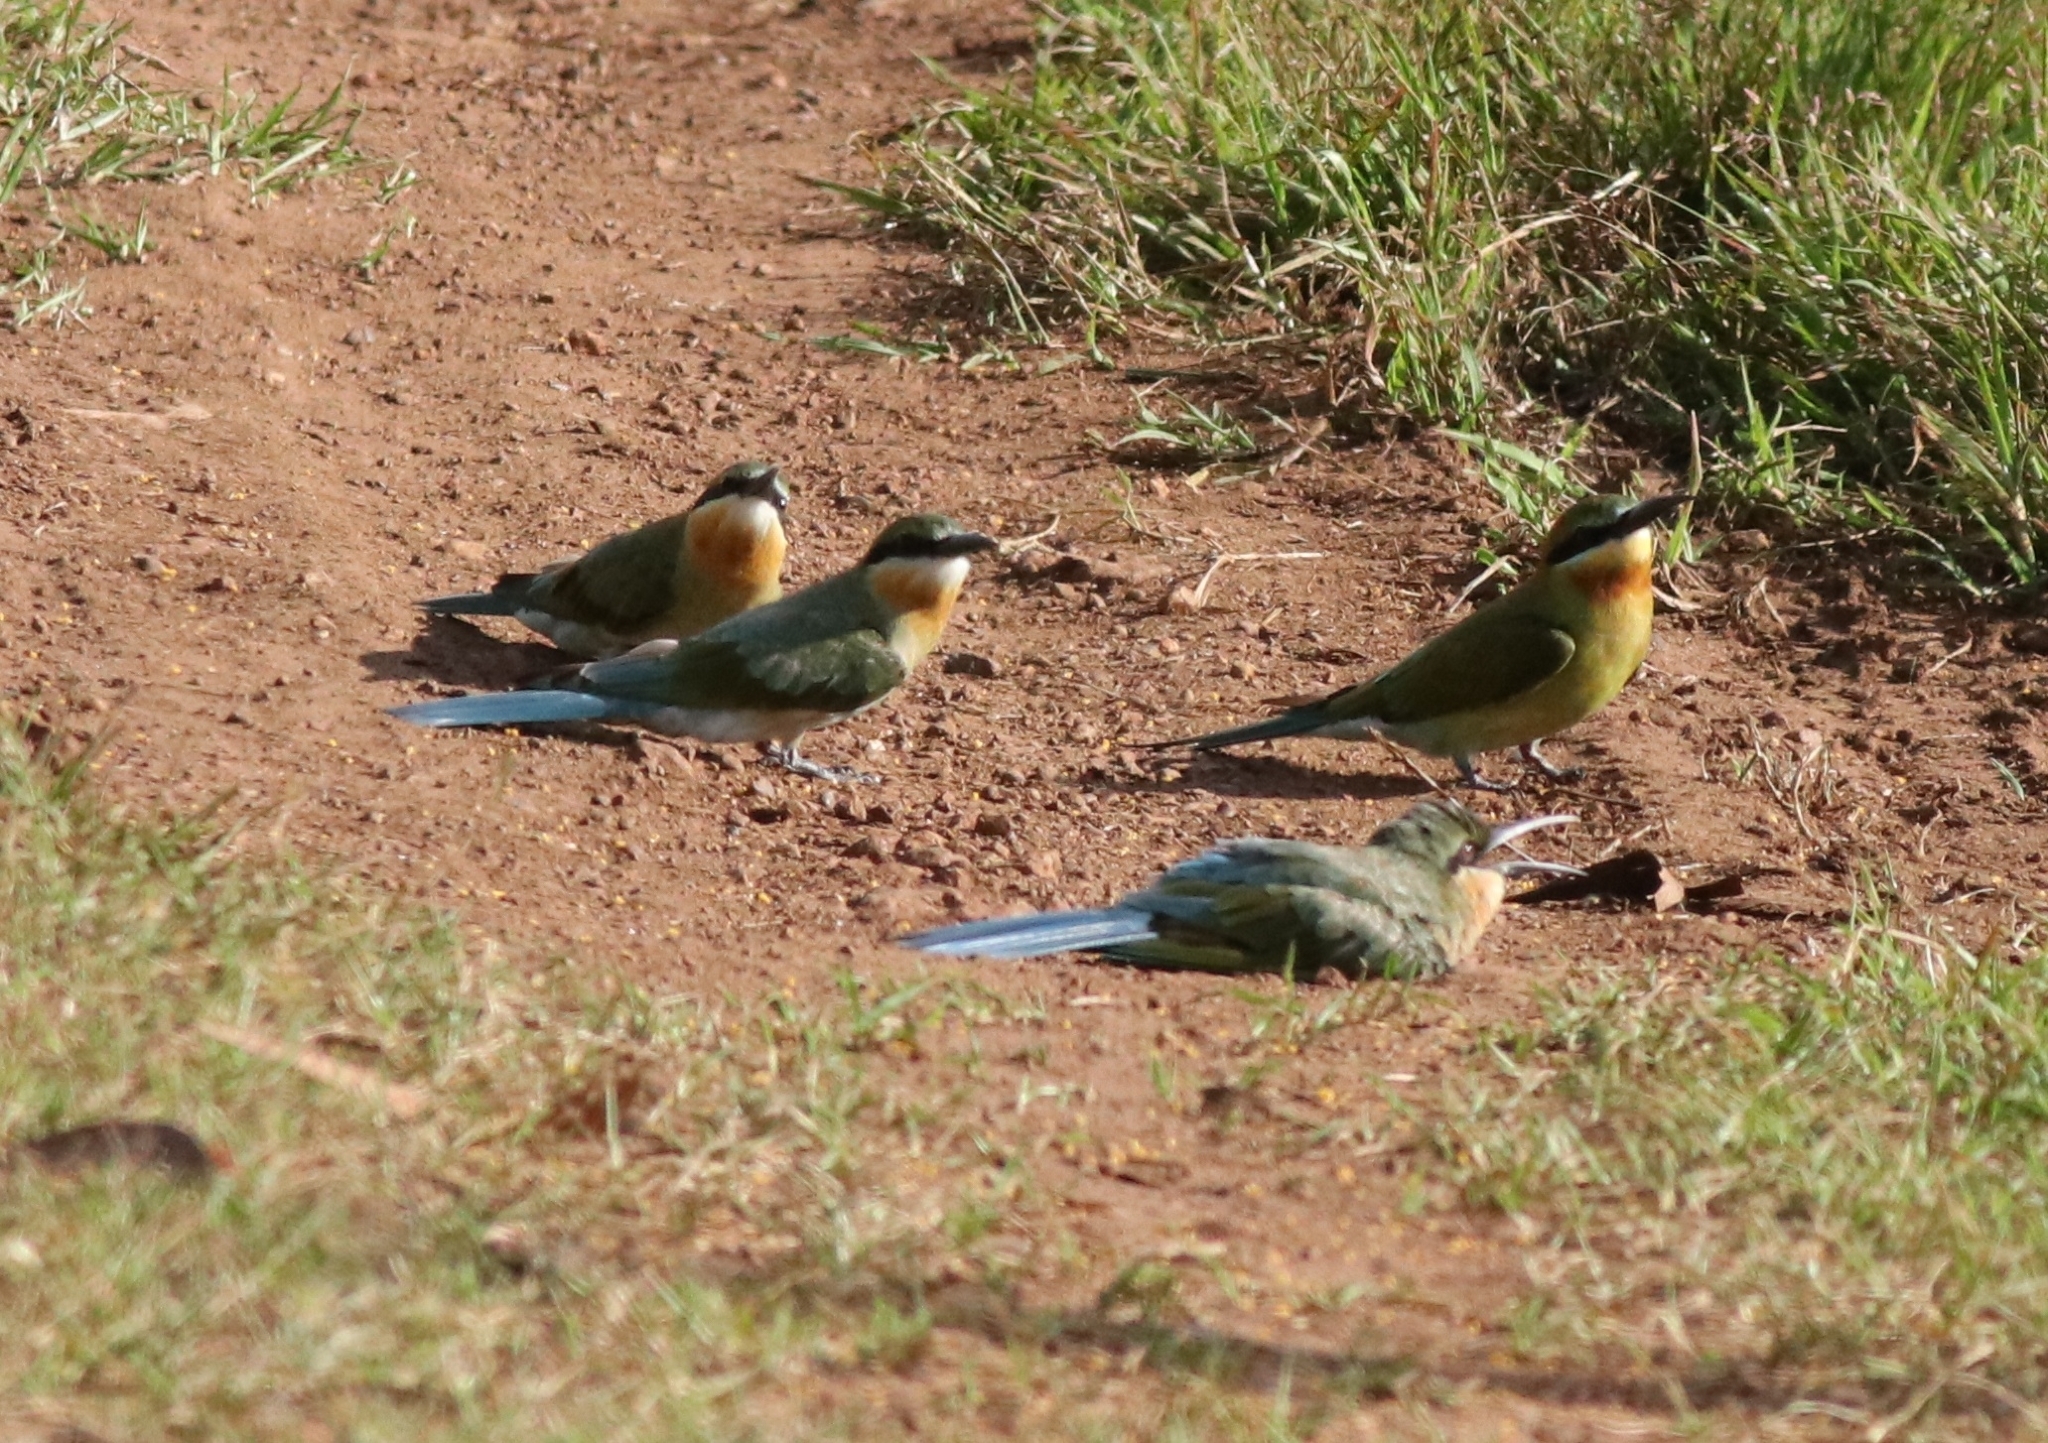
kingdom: Animalia
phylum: Chordata
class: Aves
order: Coraciiformes
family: Meropidae
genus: Merops
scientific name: Merops philippinus
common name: Blue-tailed bee-eater
